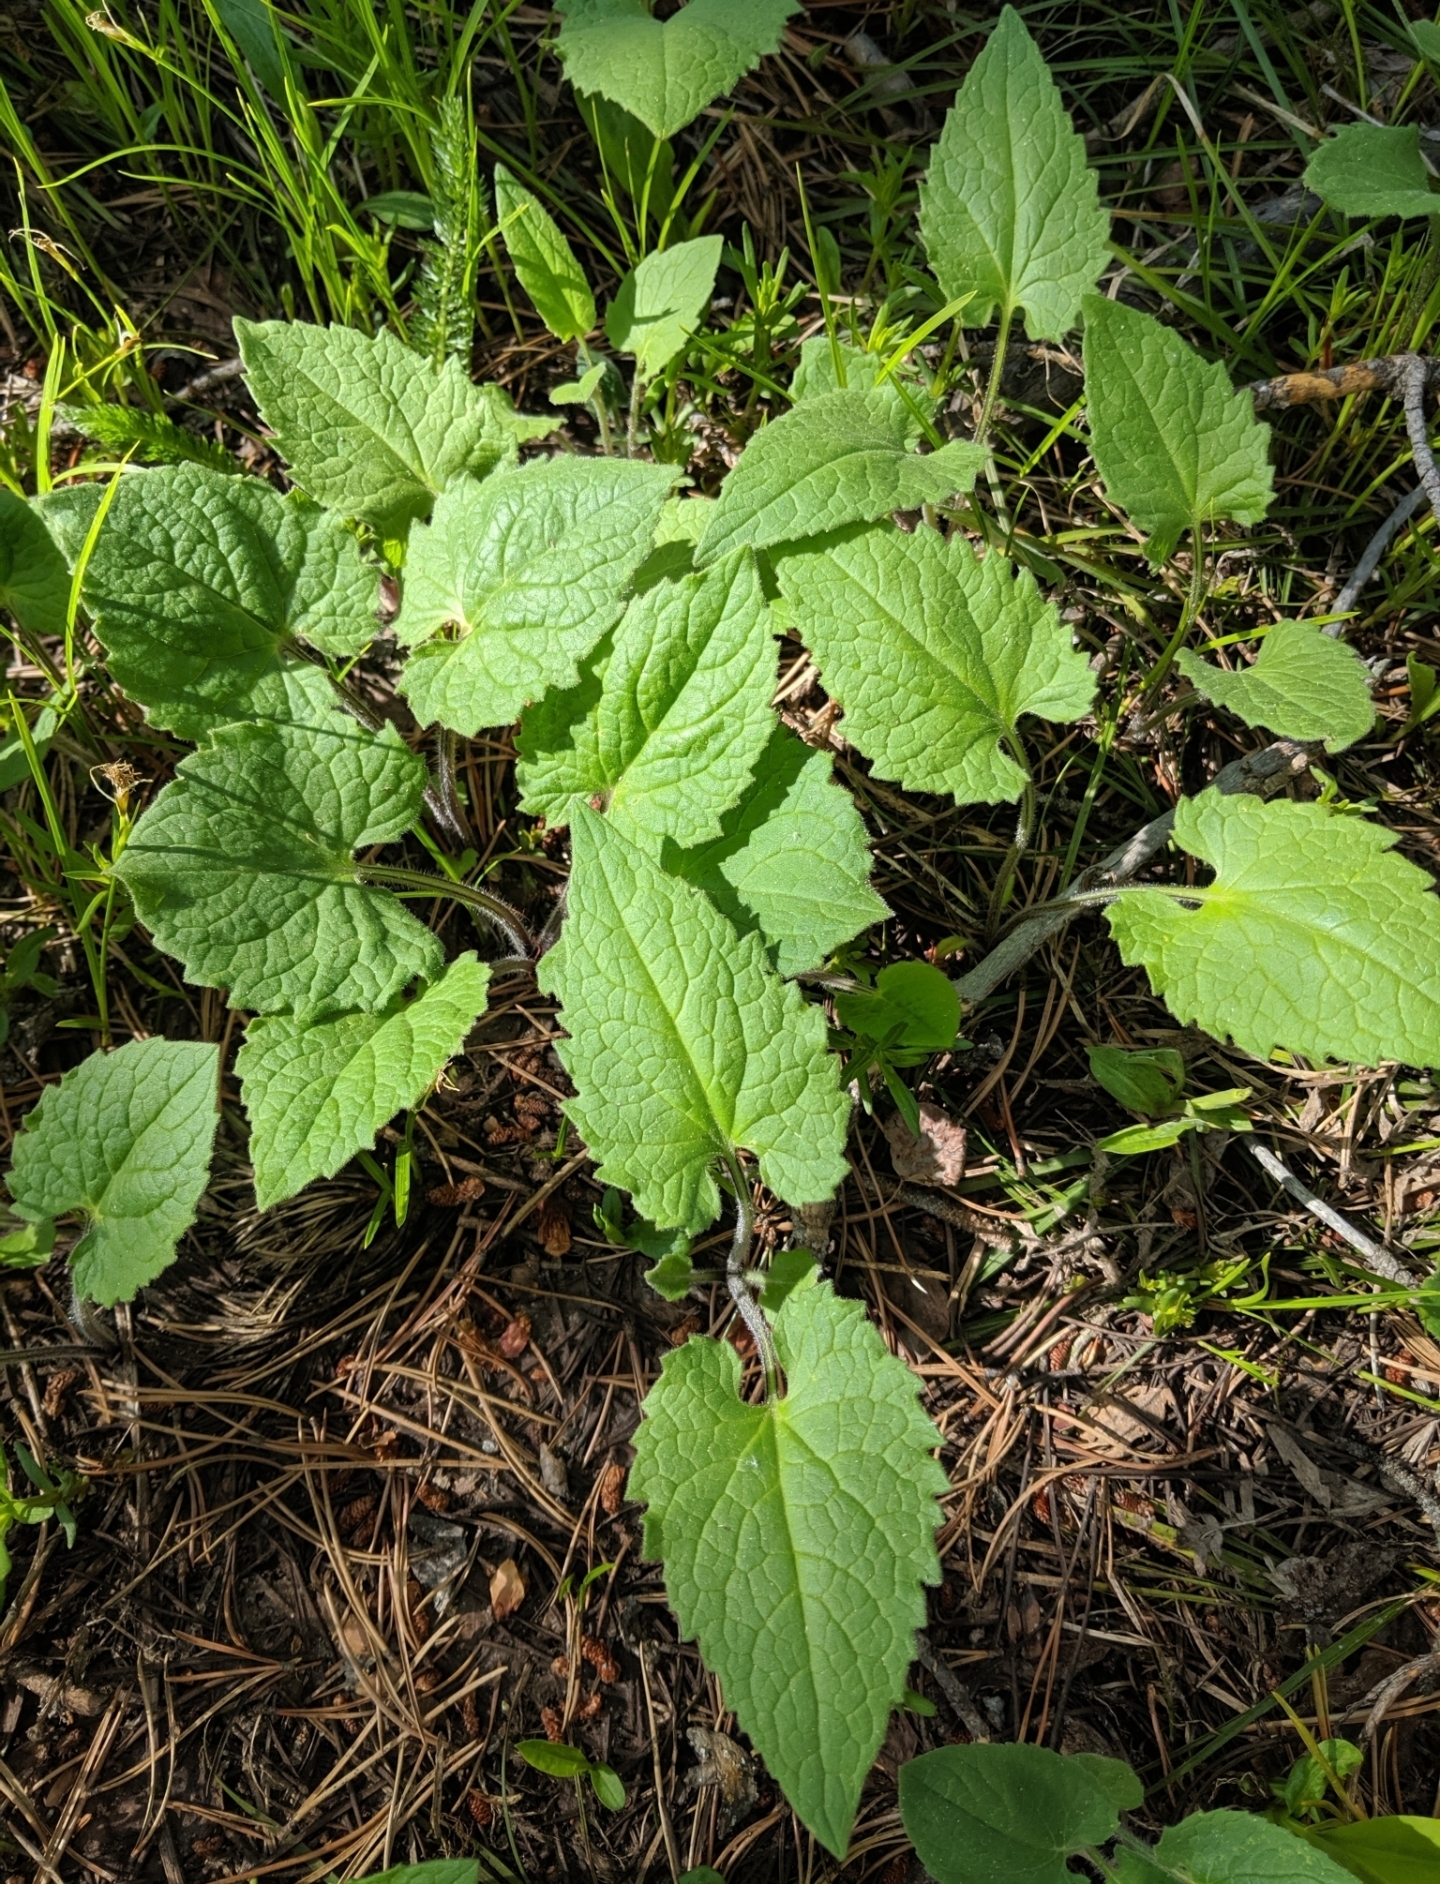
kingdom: Plantae
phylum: Tracheophyta
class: Magnoliopsida
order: Asterales
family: Asteraceae
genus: Arnica
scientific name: Arnica cordifolia
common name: Heart-leaf arnica
